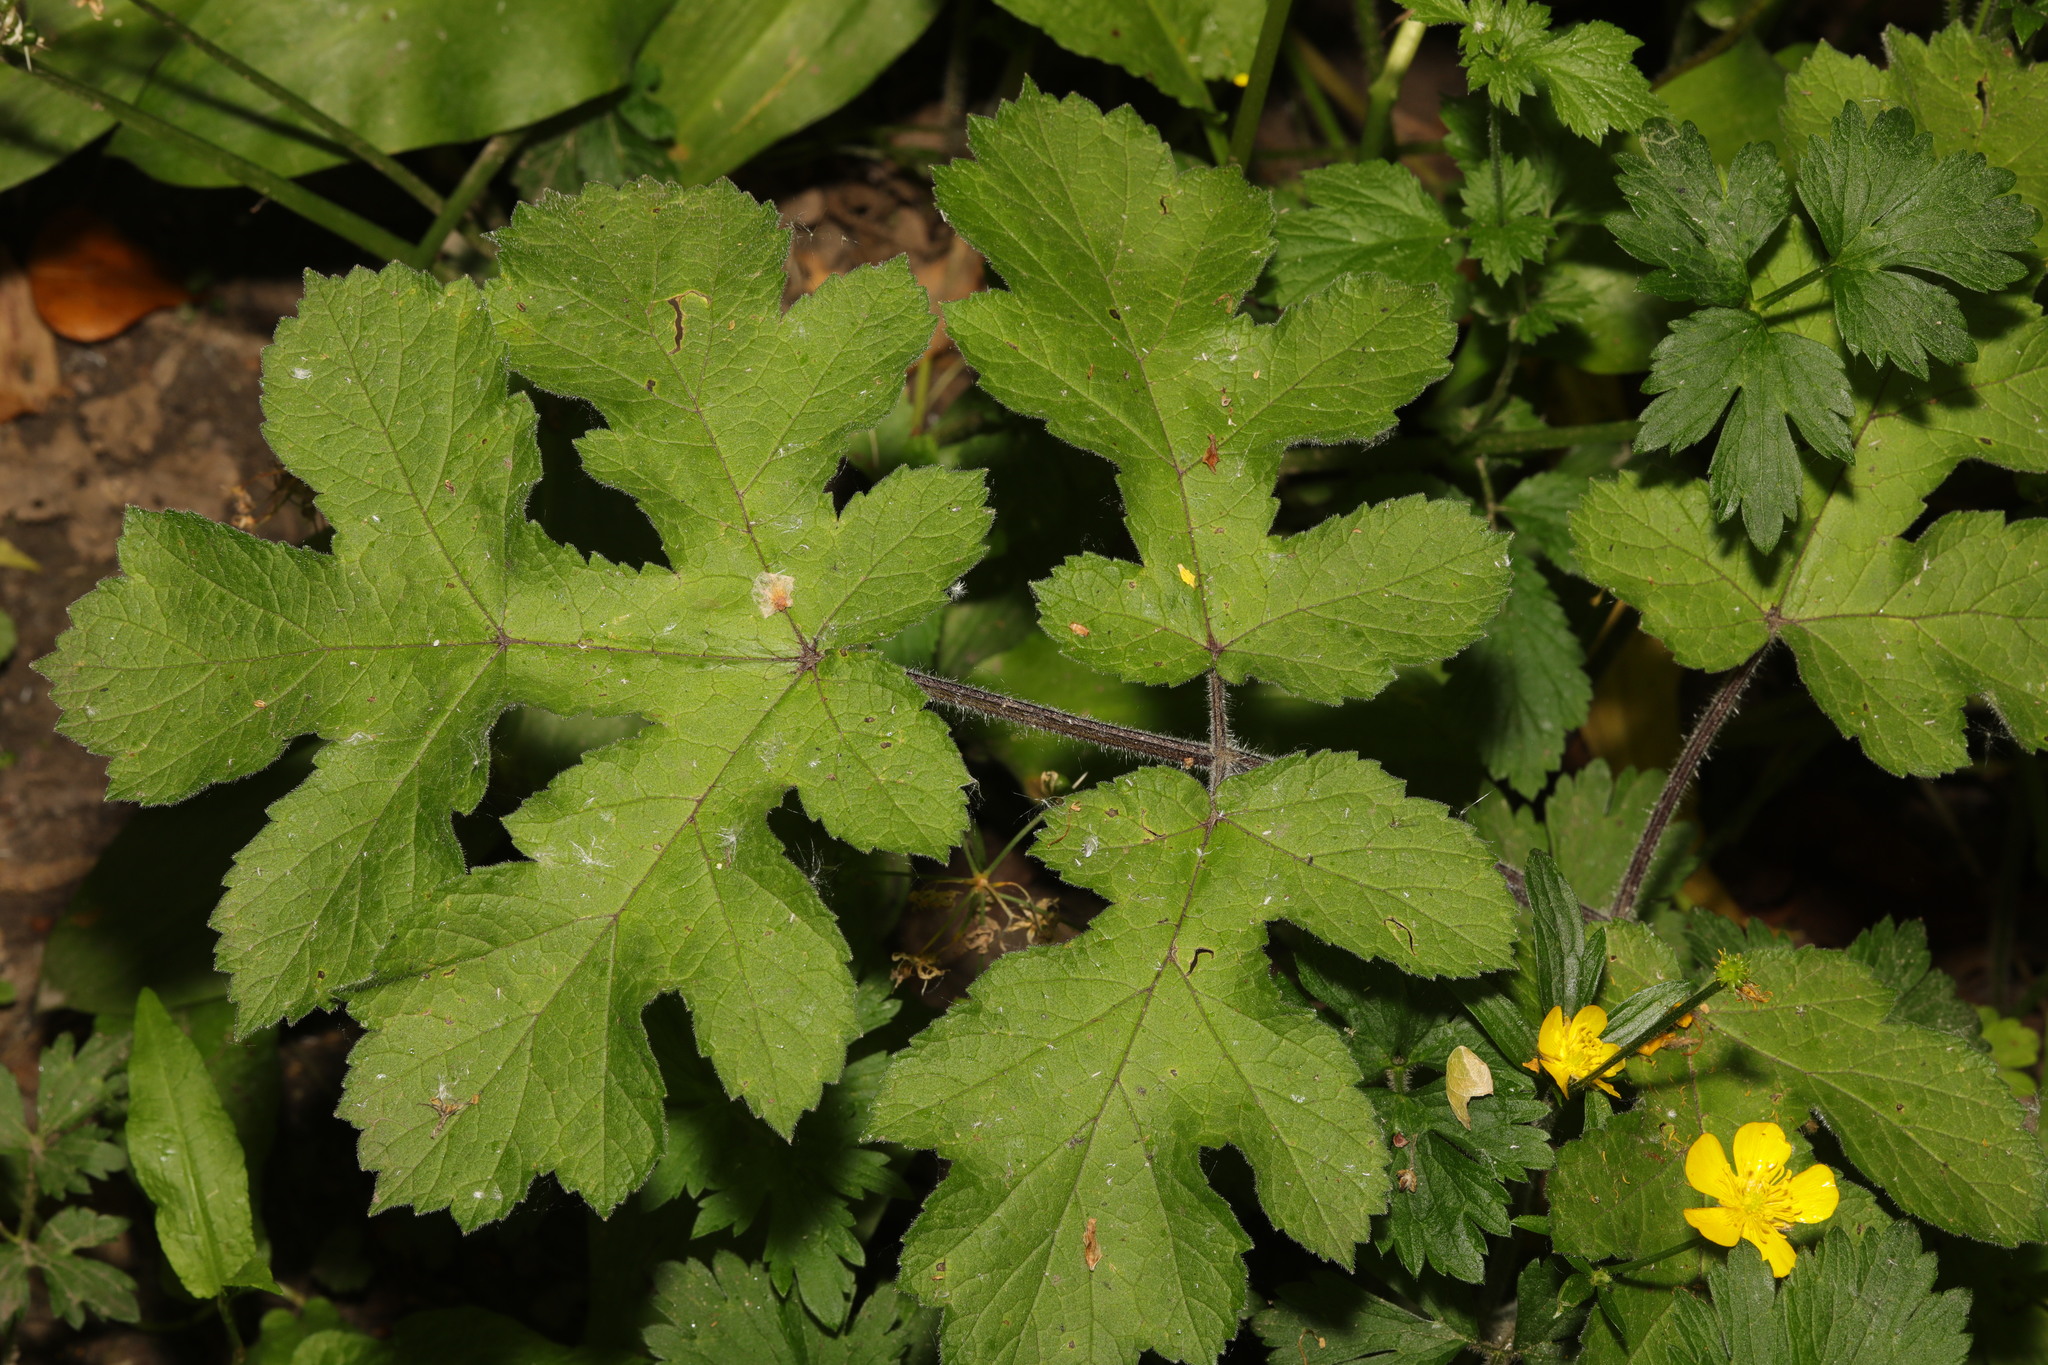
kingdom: Plantae
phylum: Tracheophyta
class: Magnoliopsida
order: Apiales
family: Apiaceae
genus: Heracleum
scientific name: Heracleum sphondylium
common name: Hogweed
